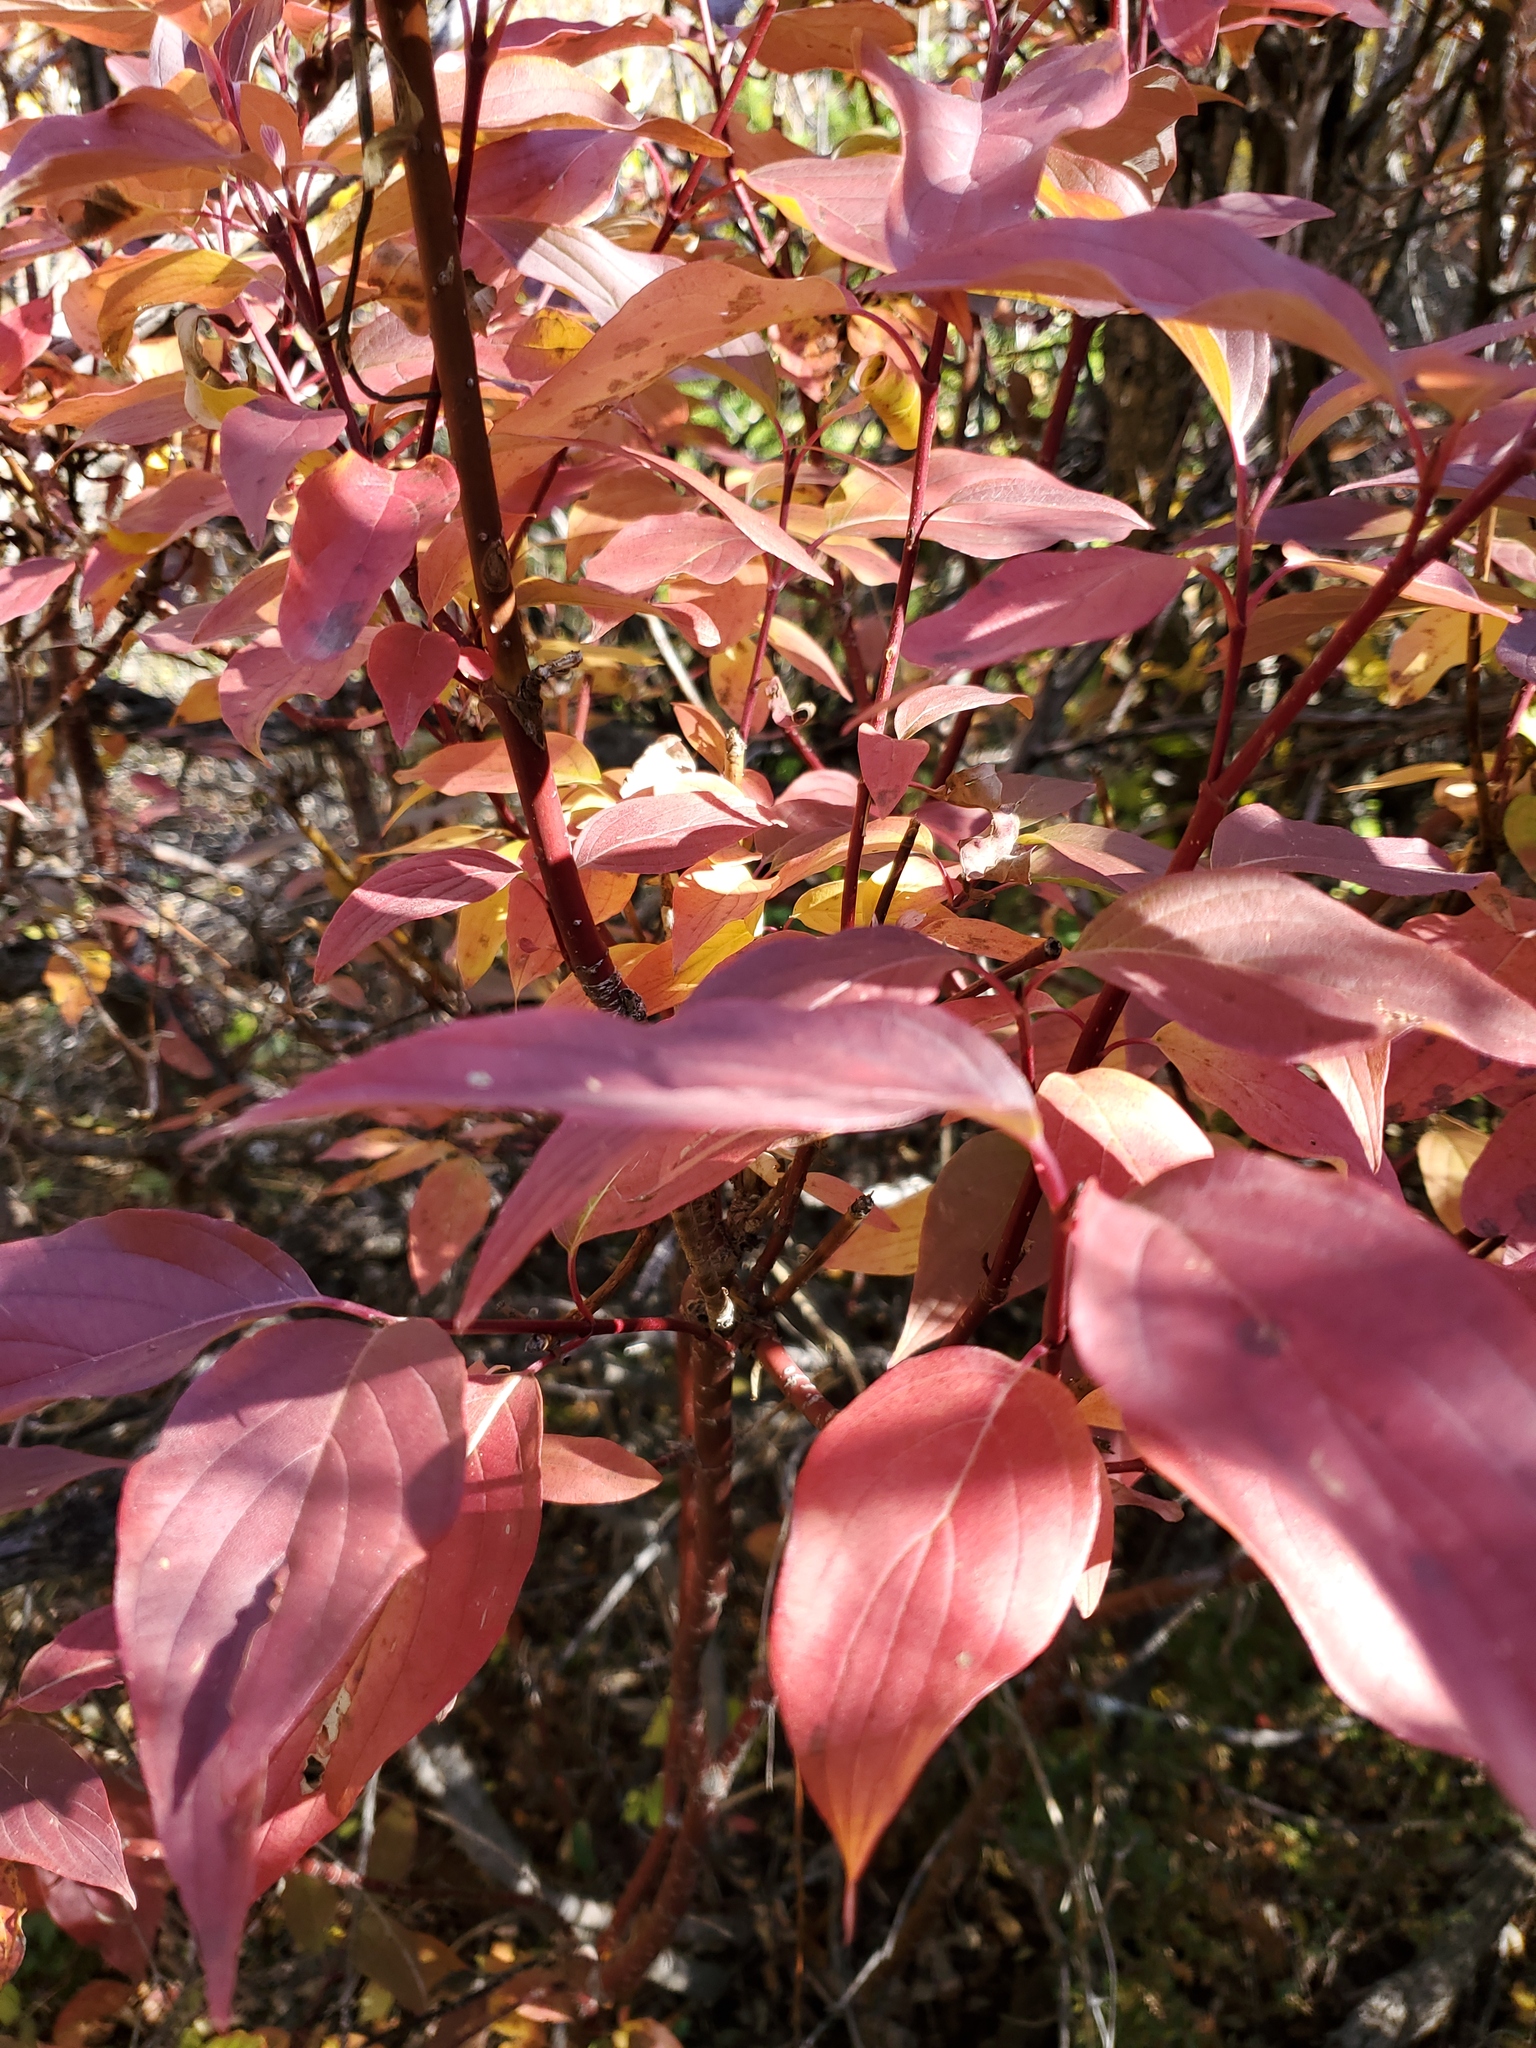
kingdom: Plantae
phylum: Tracheophyta
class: Magnoliopsida
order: Cornales
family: Cornaceae
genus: Cornus
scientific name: Cornus sericea
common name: Red-osier dogwood
